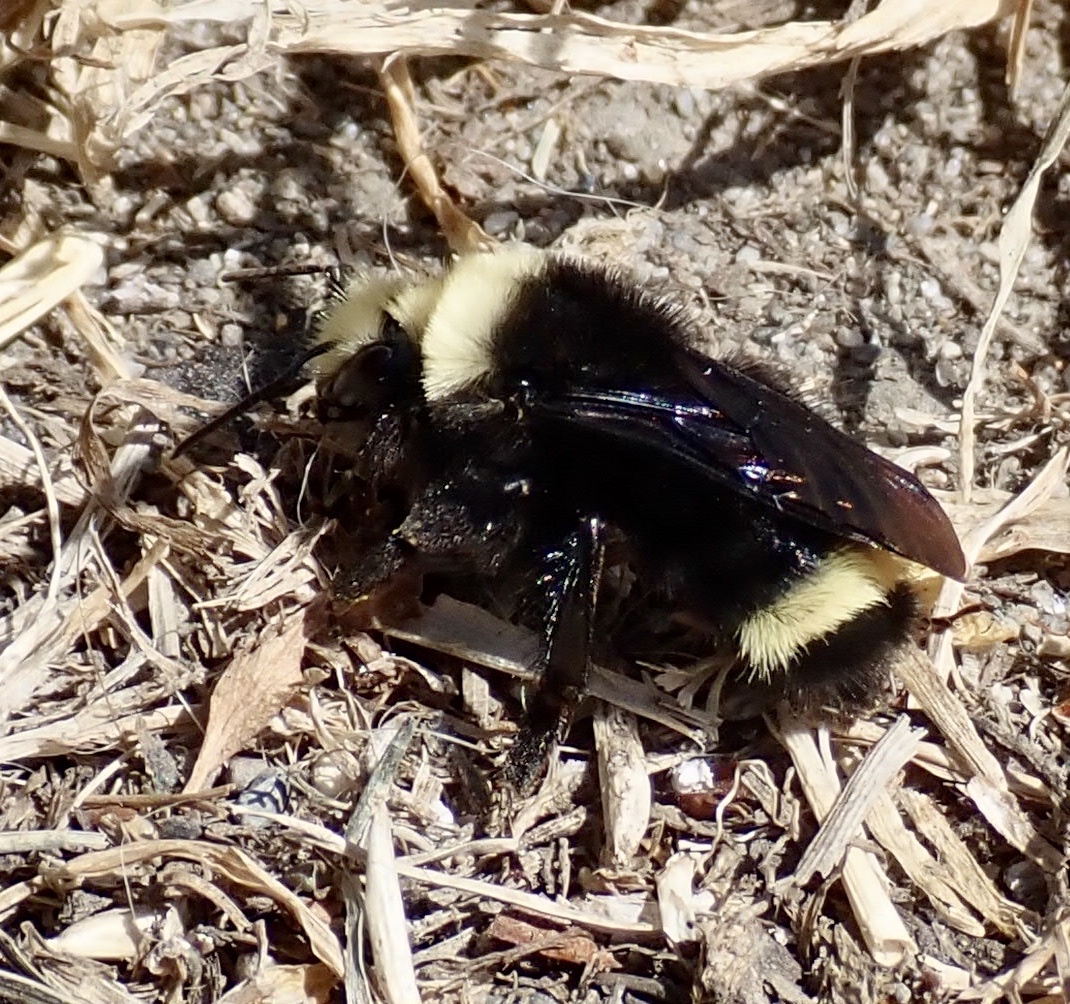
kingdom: Animalia
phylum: Arthropoda
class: Insecta
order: Hymenoptera
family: Apidae
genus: Bombus
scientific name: Bombus vosnesenskii
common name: Vosnesensky bumble bee
